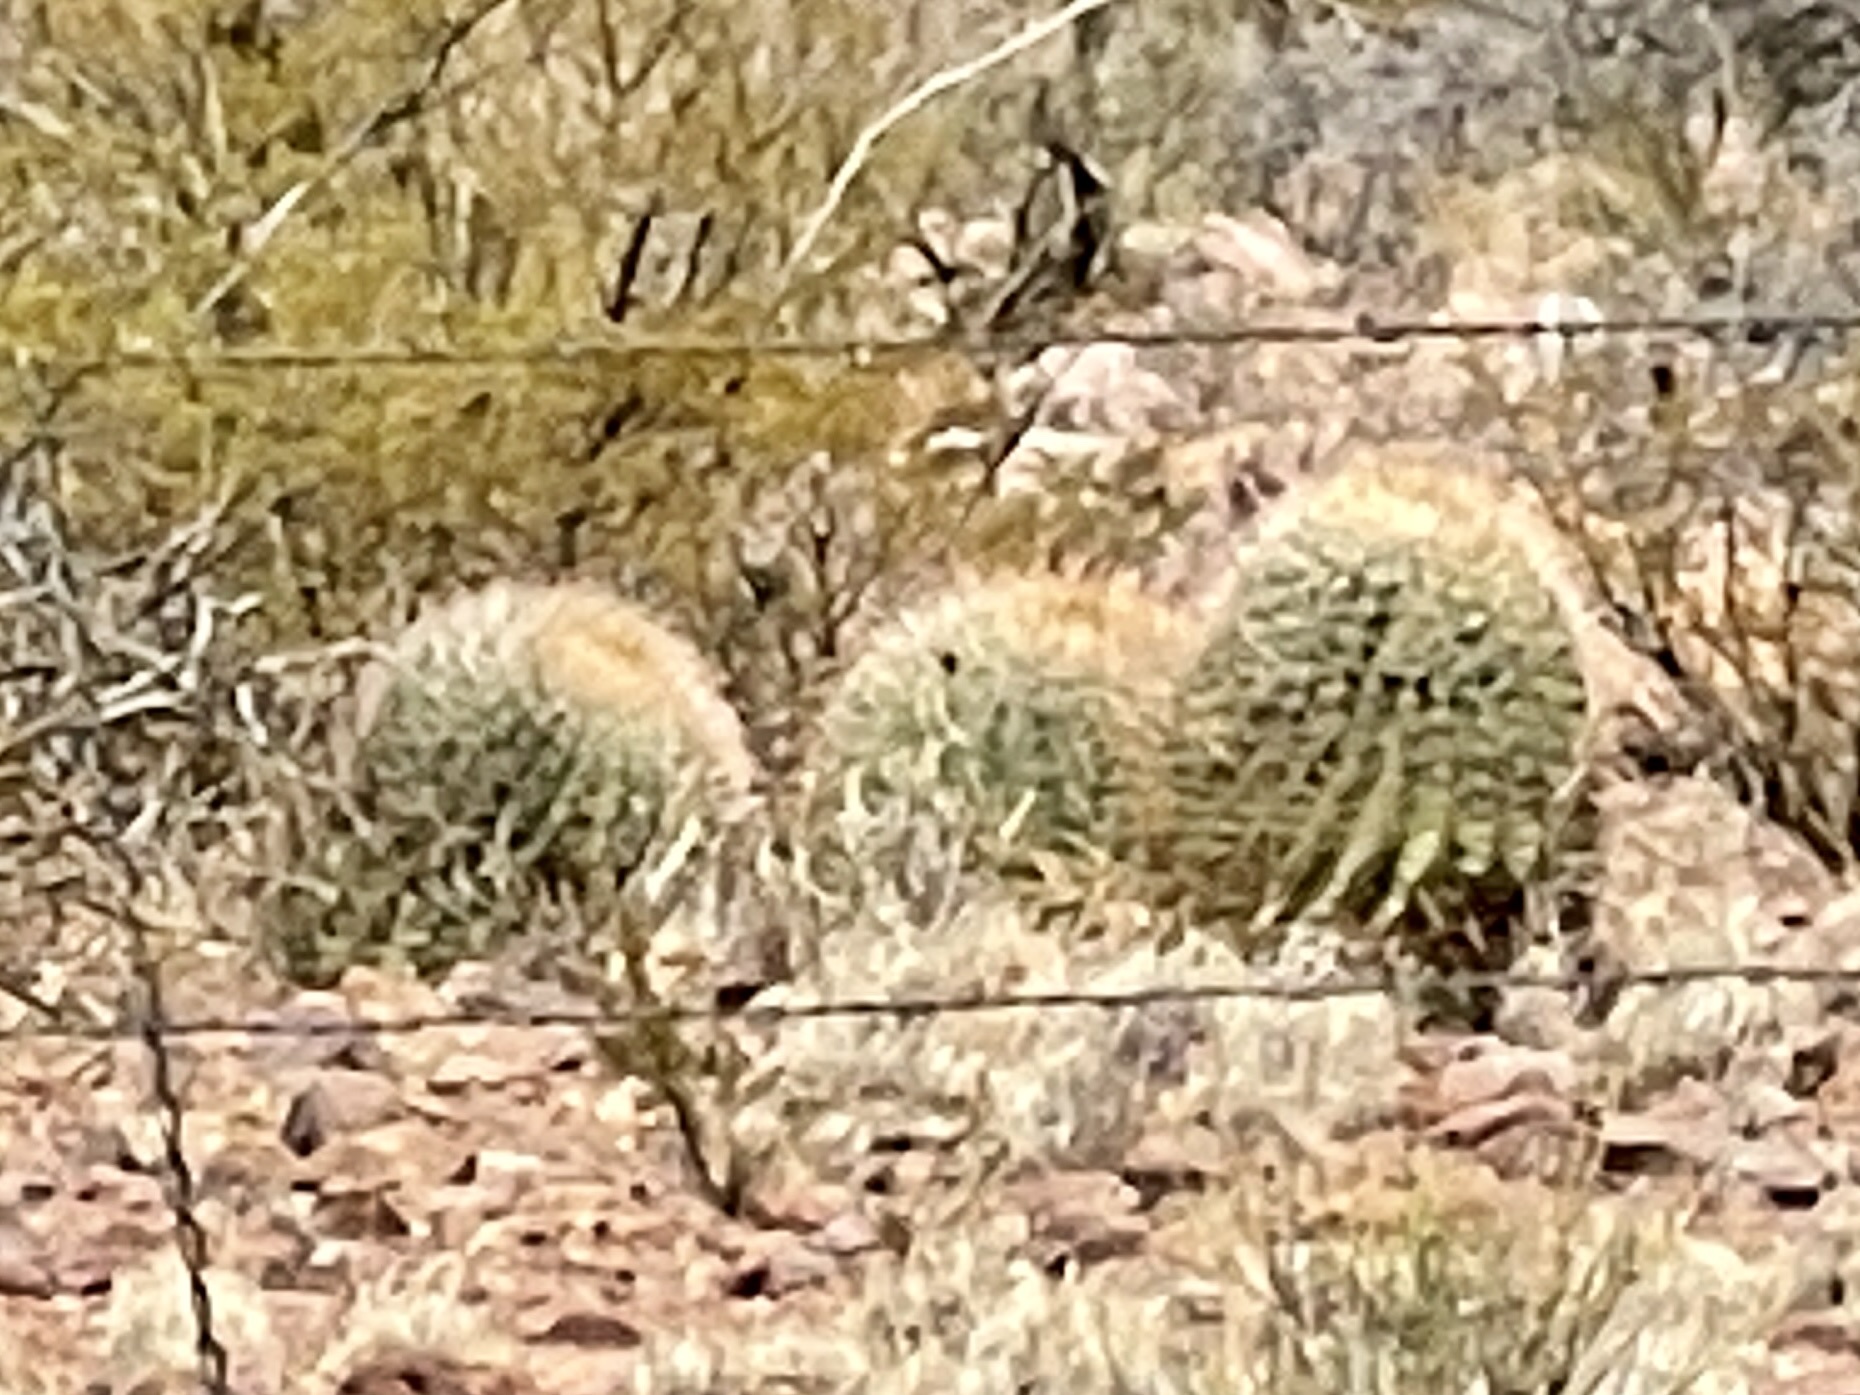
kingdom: Plantae
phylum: Tracheophyta
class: Magnoliopsida
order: Caryophyllales
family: Cactaceae
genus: Ferocactus
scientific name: Ferocactus wislizeni
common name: Candy barrel cactus
